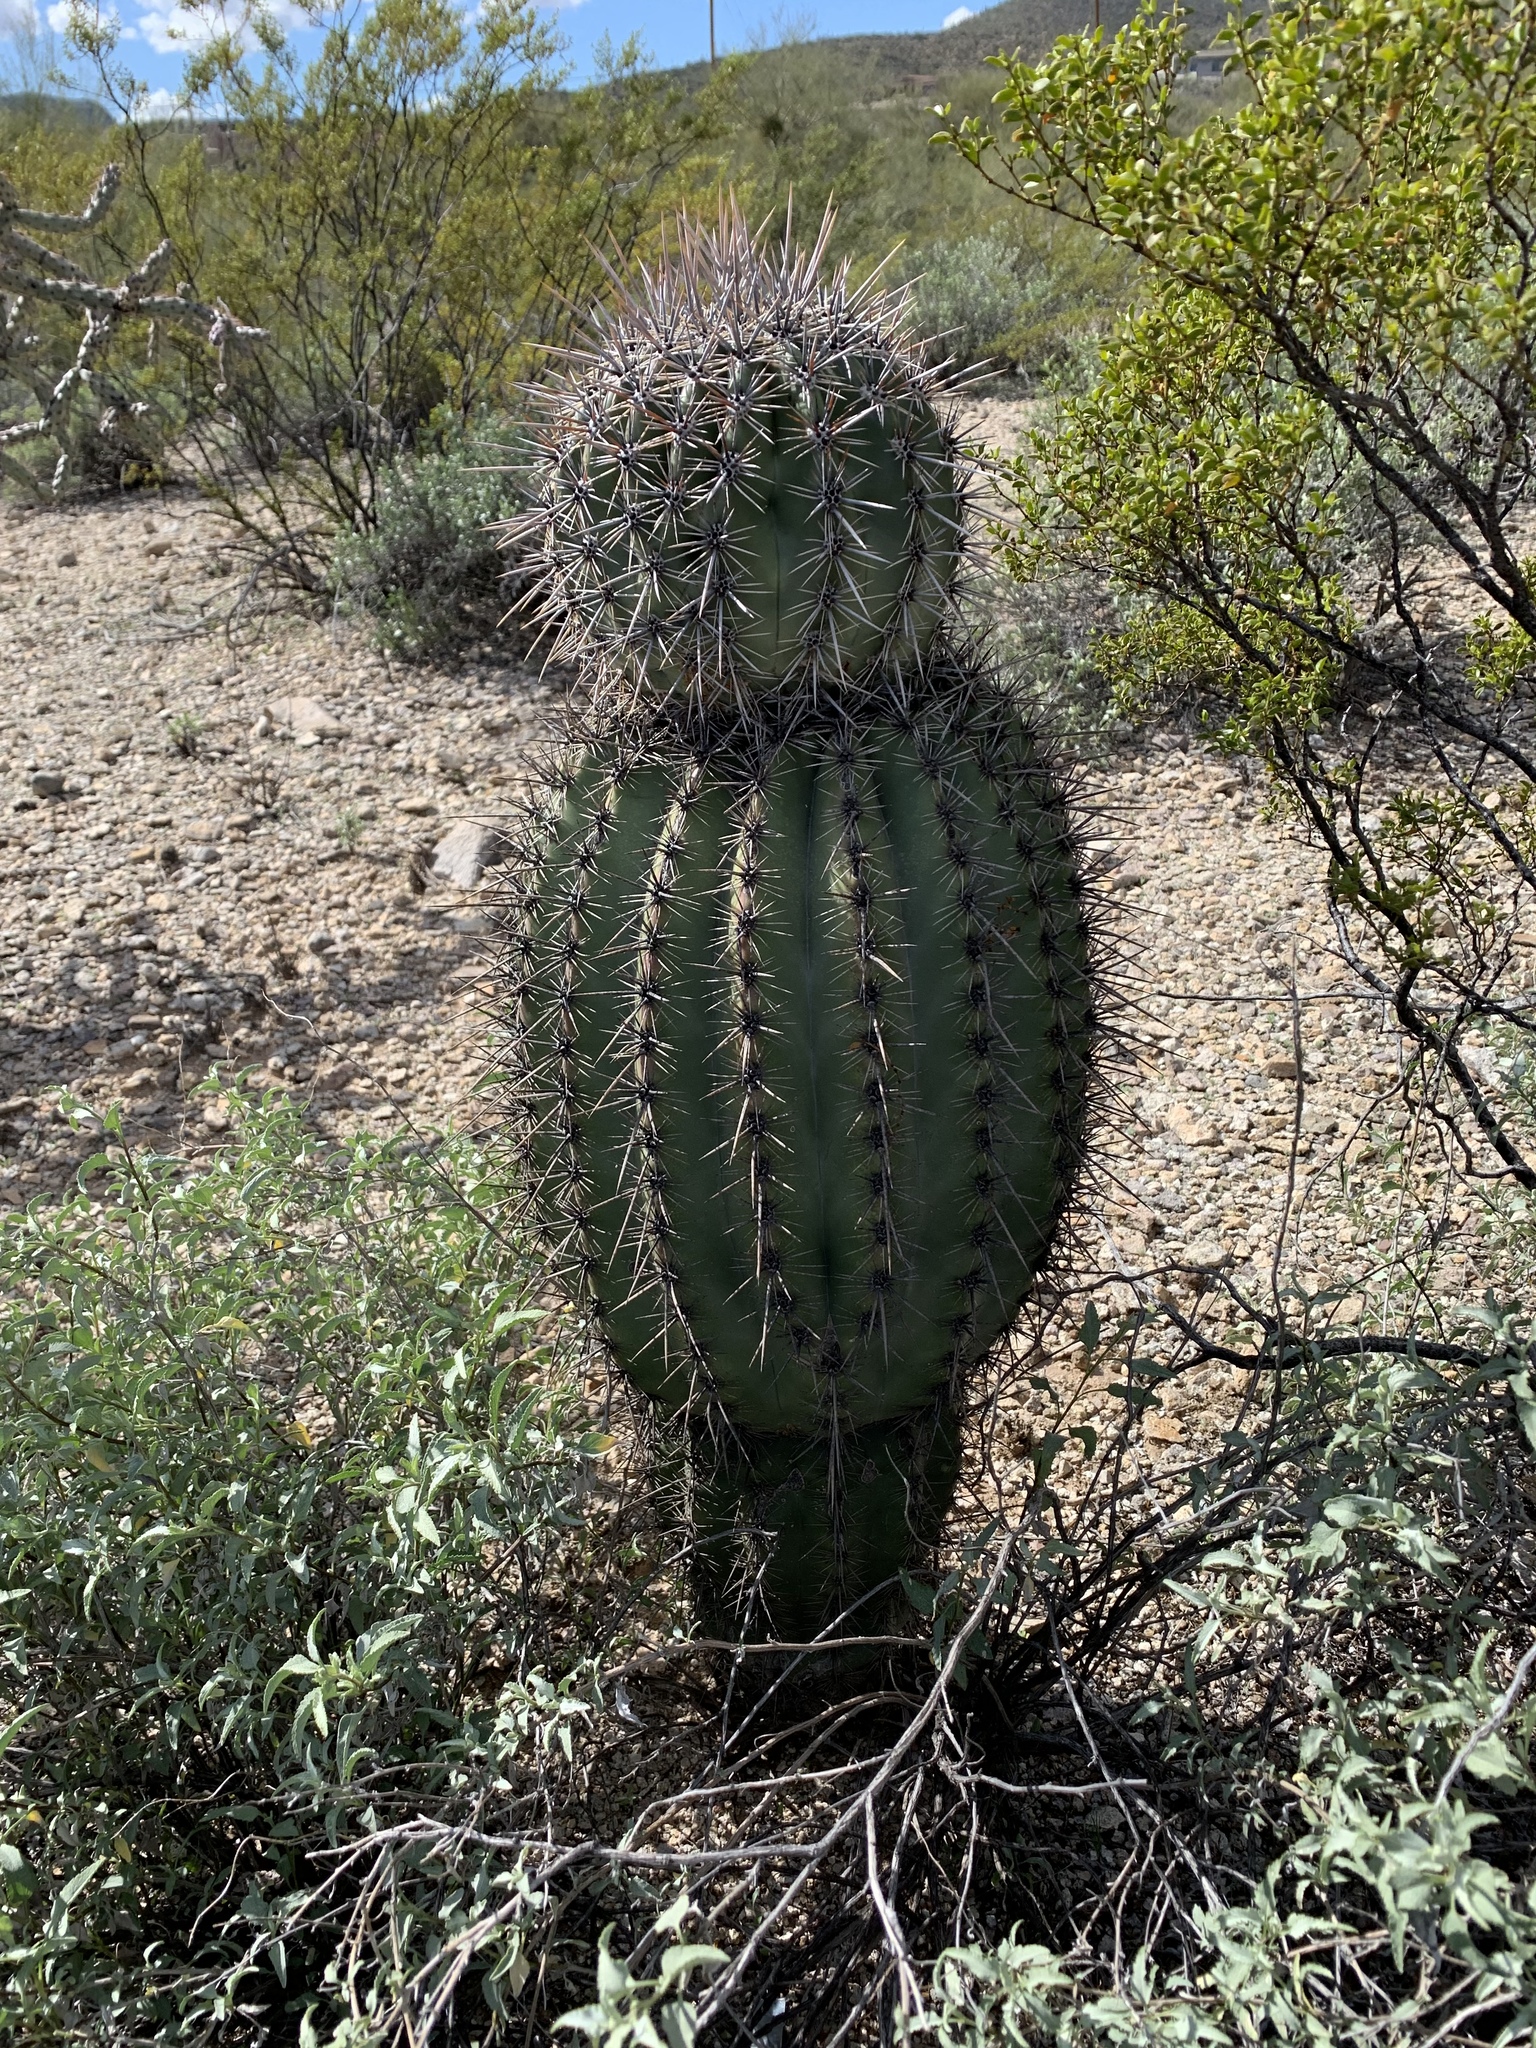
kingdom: Plantae
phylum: Tracheophyta
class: Magnoliopsida
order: Caryophyllales
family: Cactaceae
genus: Carnegiea
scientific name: Carnegiea gigantea
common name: Saguaro
